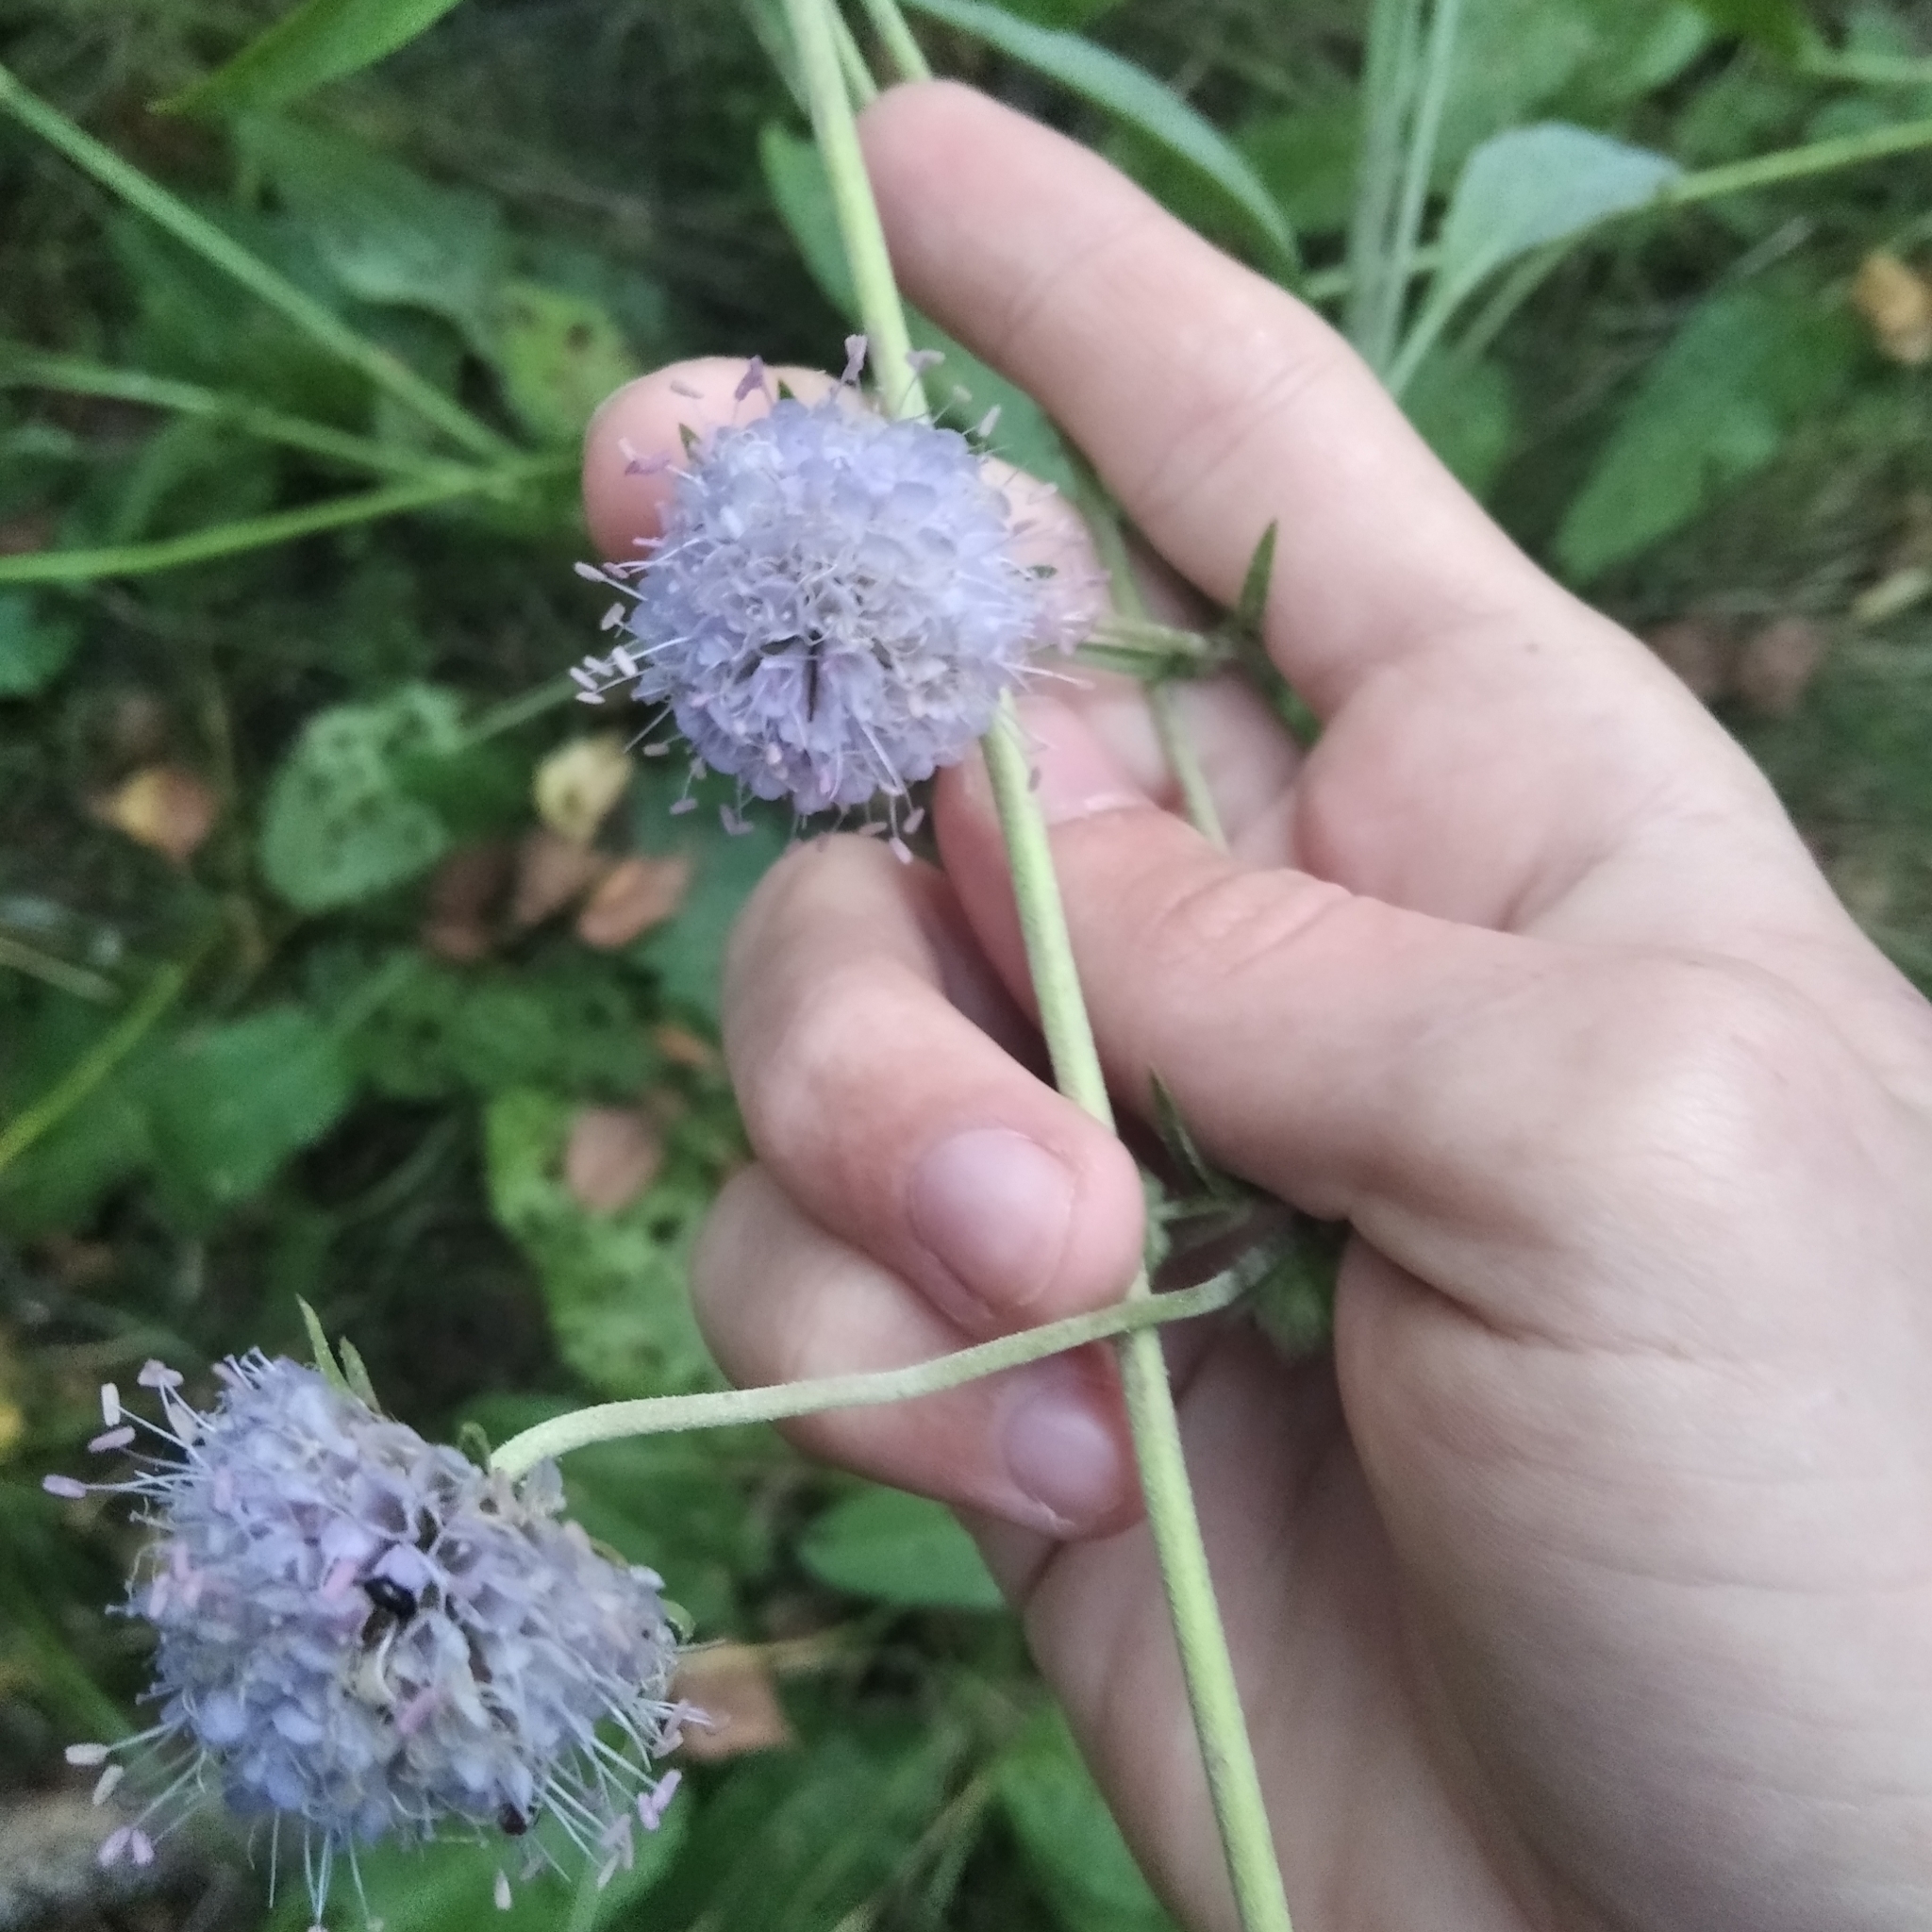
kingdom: Plantae
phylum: Tracheophyta
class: Magnoliopsida
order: Dipsacales
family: Caprifoliaceae
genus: Succisa
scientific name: Succisa pratensis
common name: Devil's-bit
